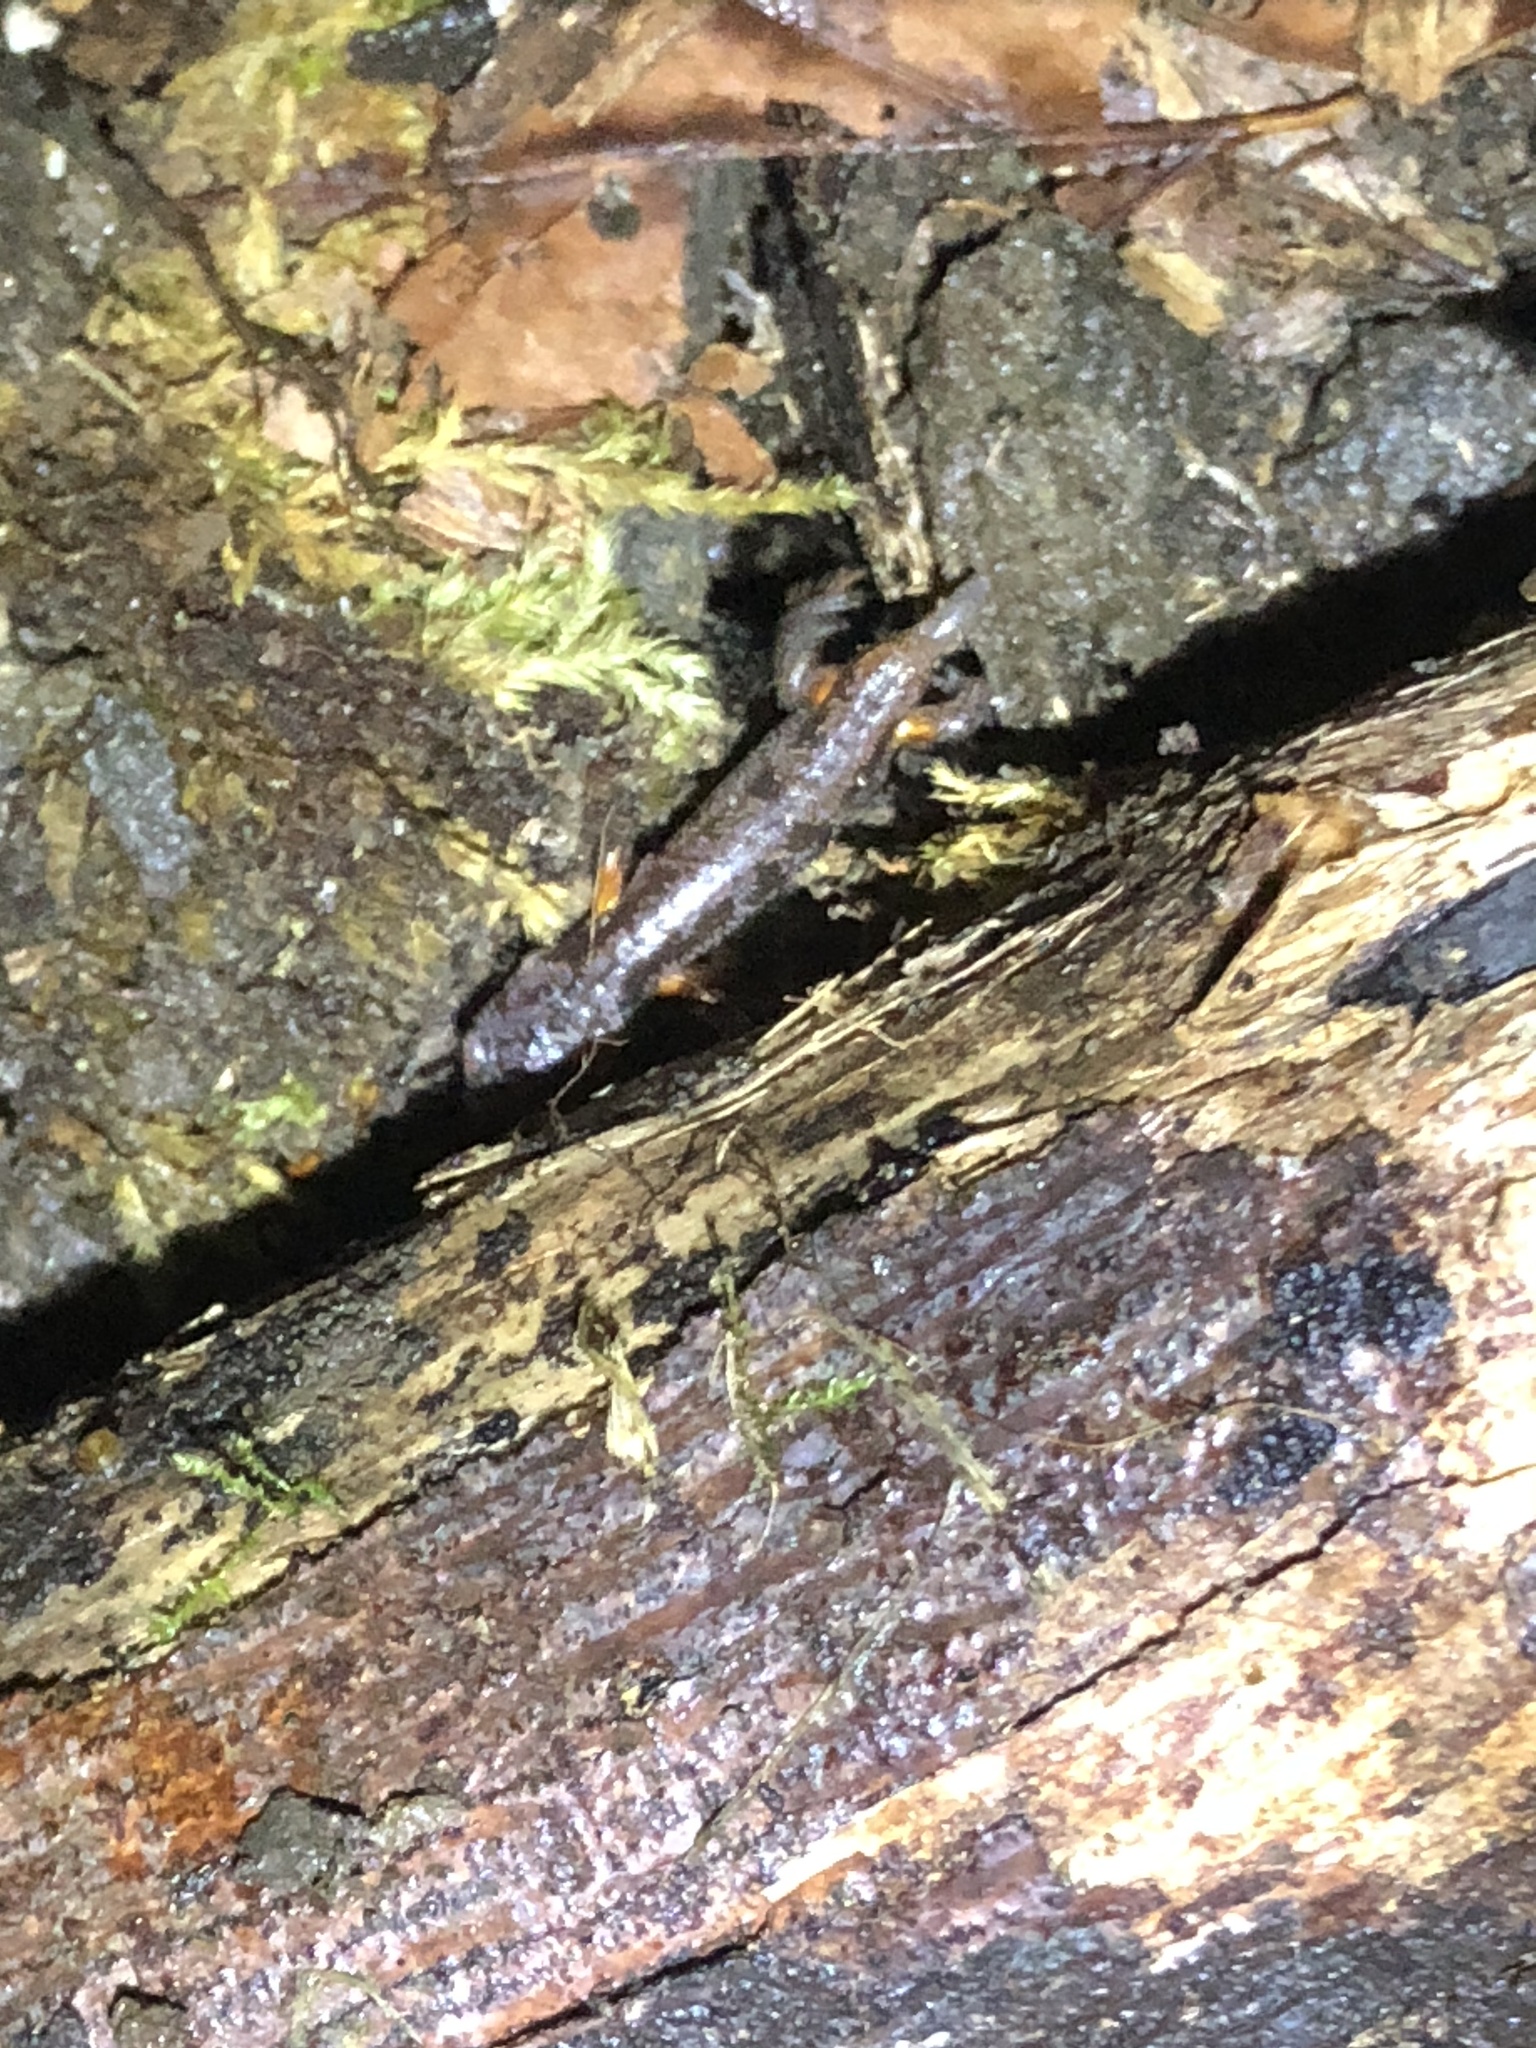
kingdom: Animalia
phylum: Chordata
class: Amphibia
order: Caudata
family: Plethodontidae
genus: Ensatina
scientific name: Ensatina eschscholtzii
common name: Ensatina
